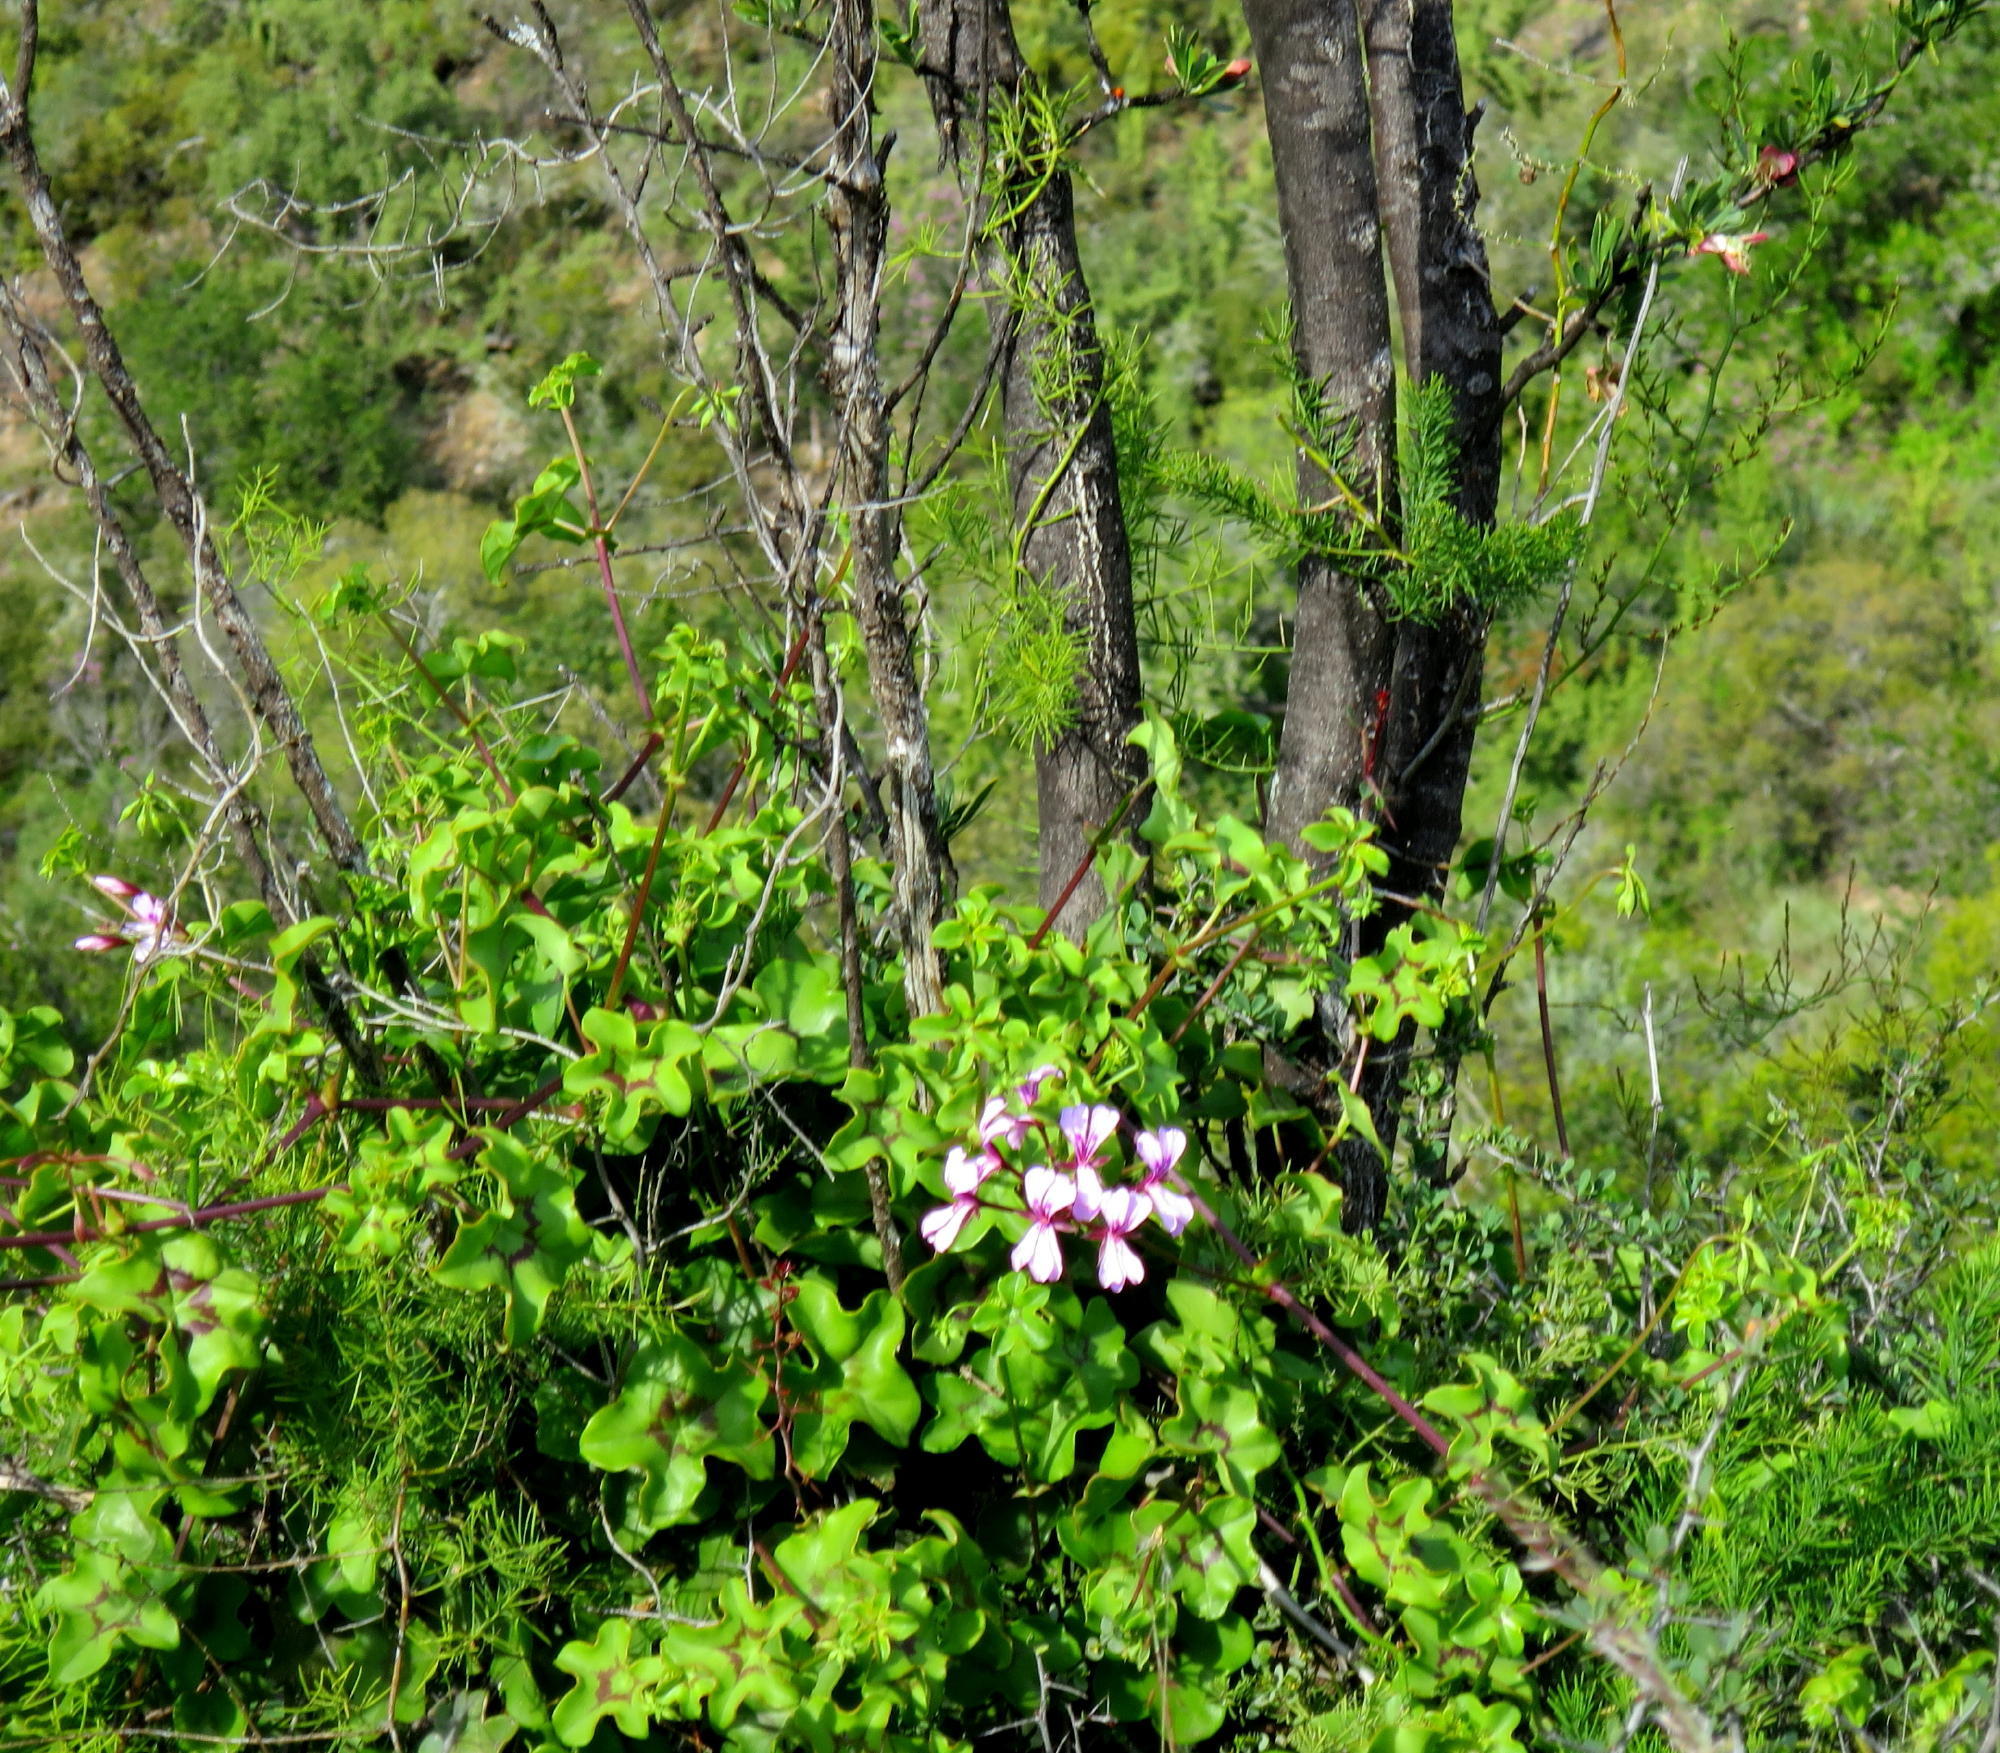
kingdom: Plantae
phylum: Tracheophyta
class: Magnoliopsida
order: Geraniales
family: Geraniaceae
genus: Pelargonium
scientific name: Pelargonium peltatum
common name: Ivyleaf geranium
